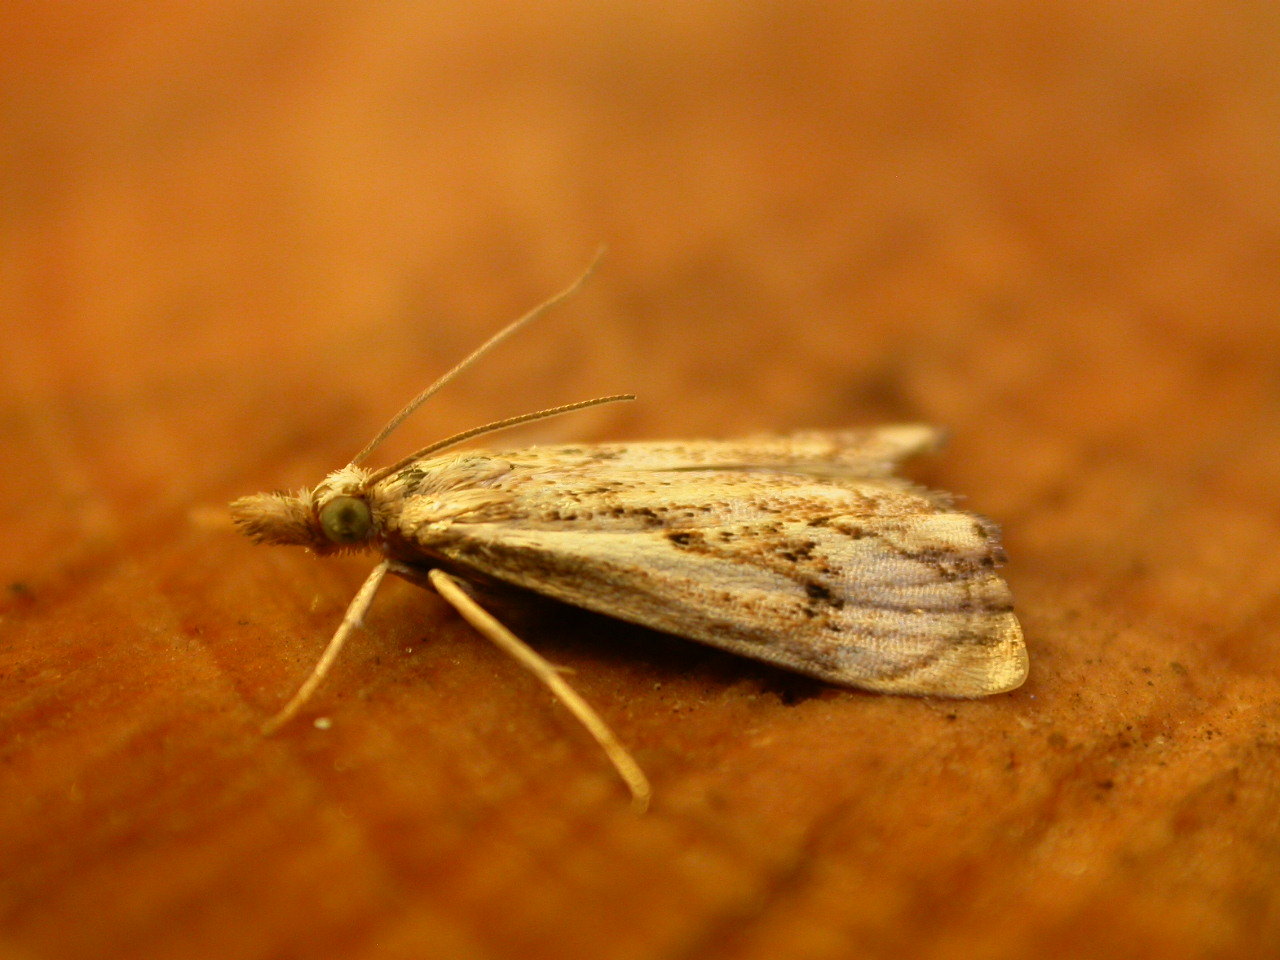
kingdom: Animalia
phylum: Arthropoda
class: Insecta
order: Lepidoptera
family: Crambidae
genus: Catoptria
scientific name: Catoptria falsella
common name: Chequered grass-veneer
